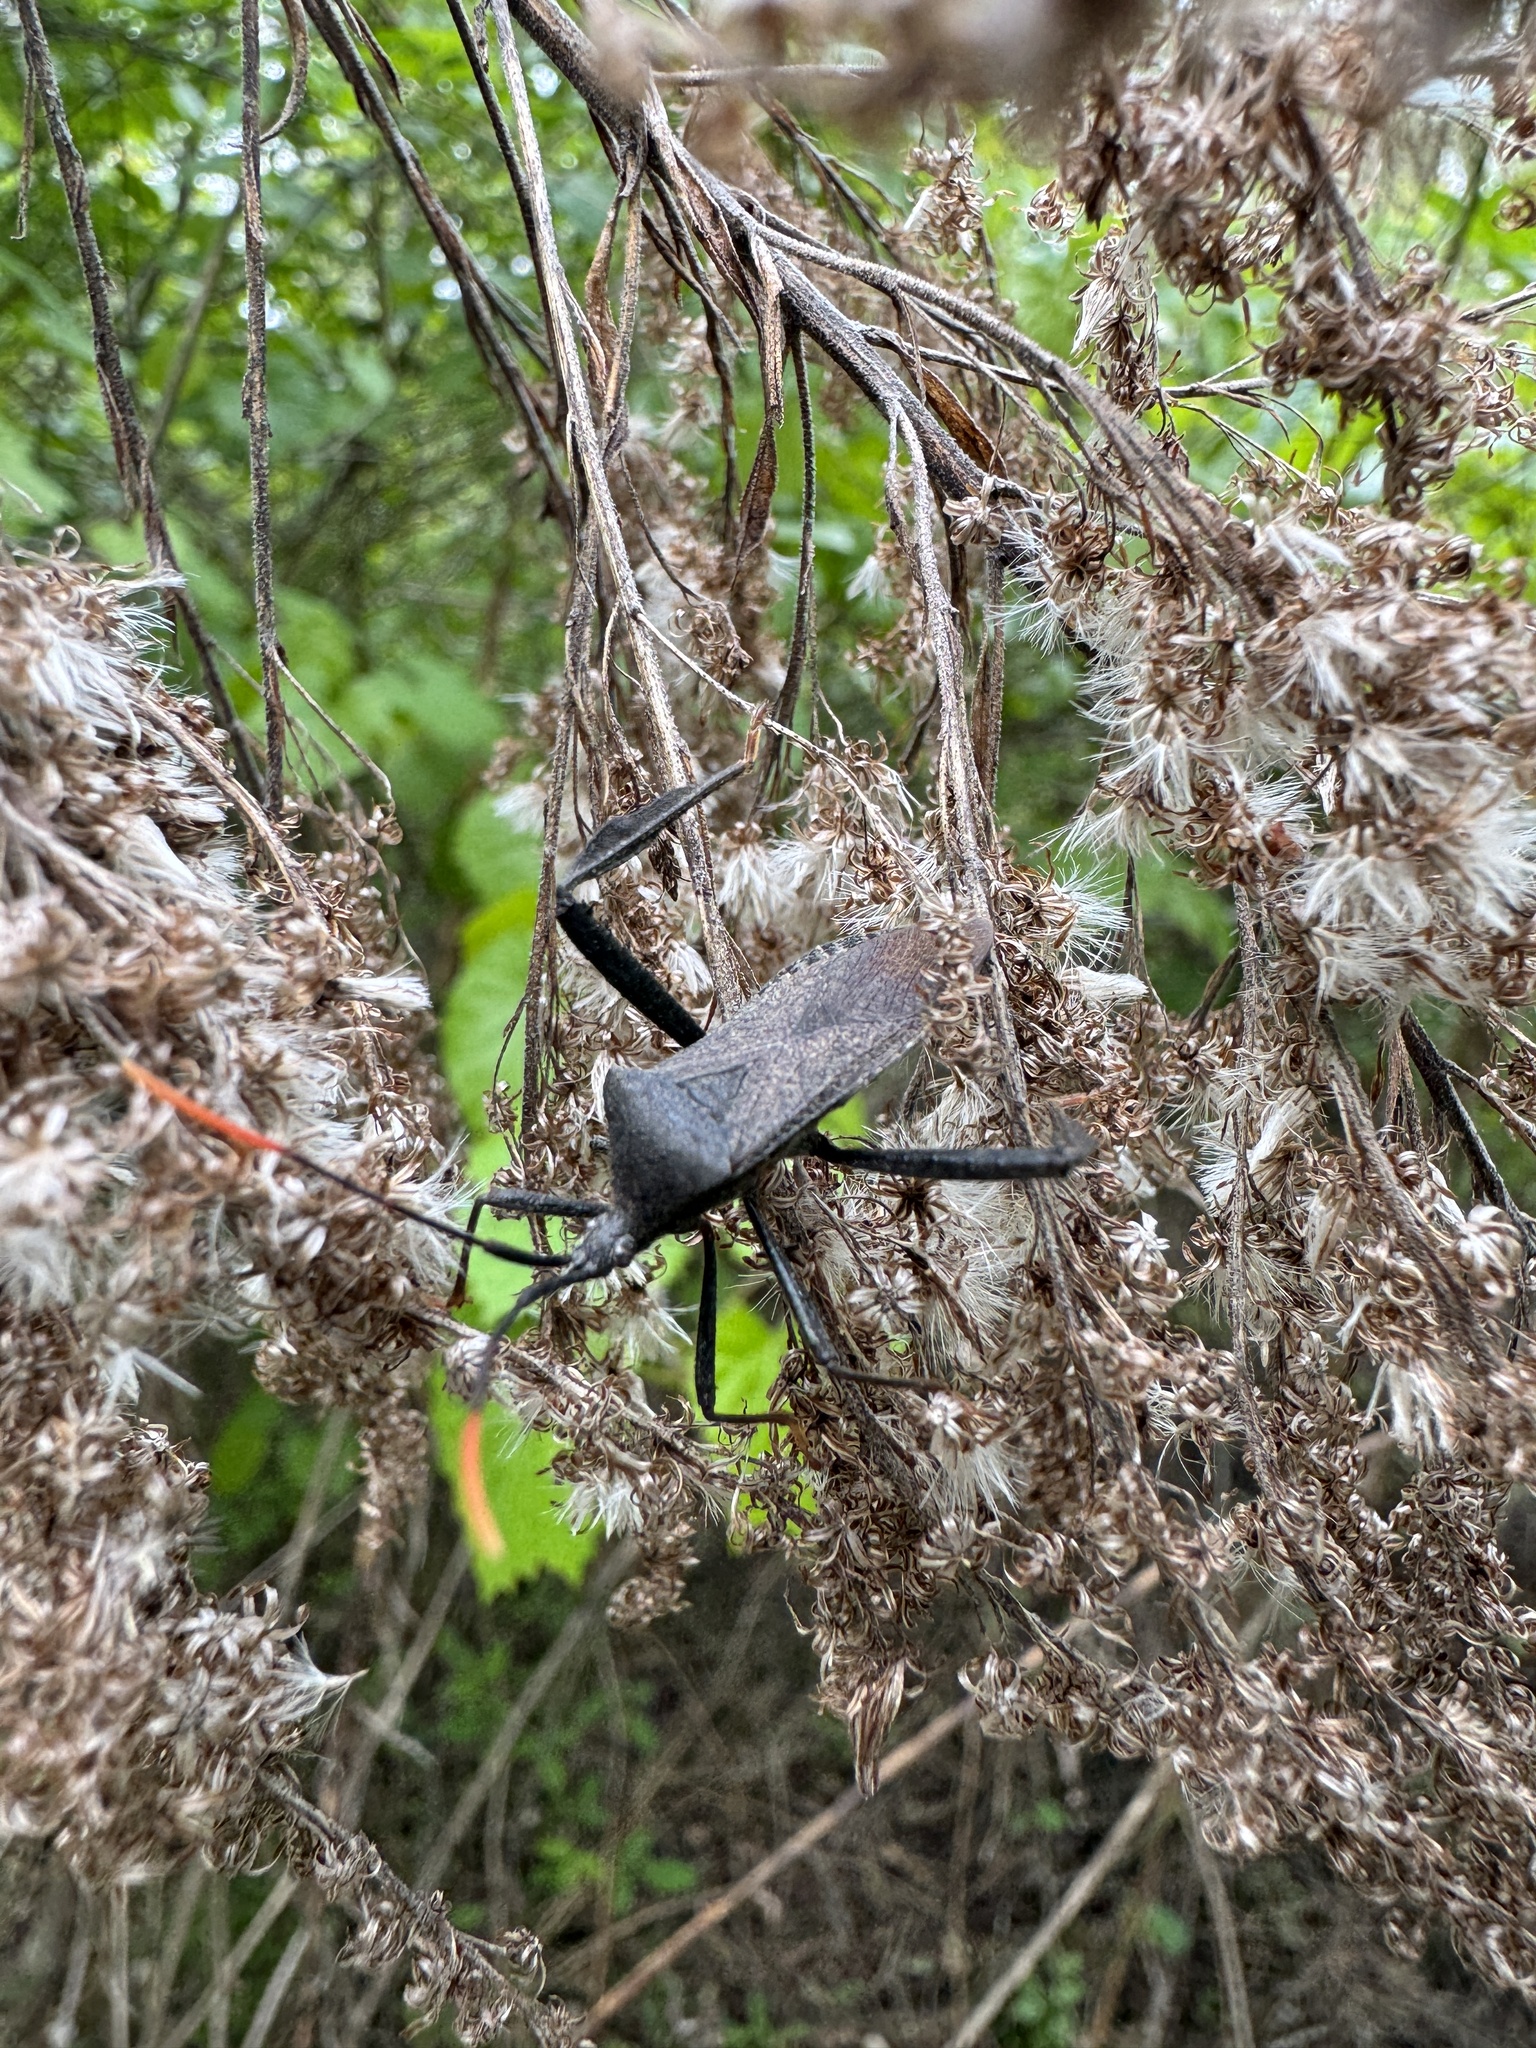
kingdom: Animalia
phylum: Arthropoda
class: Insecta
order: Hemiptera
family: Coreidae
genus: Acanthocephala
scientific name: Acanthocephala terminalis
